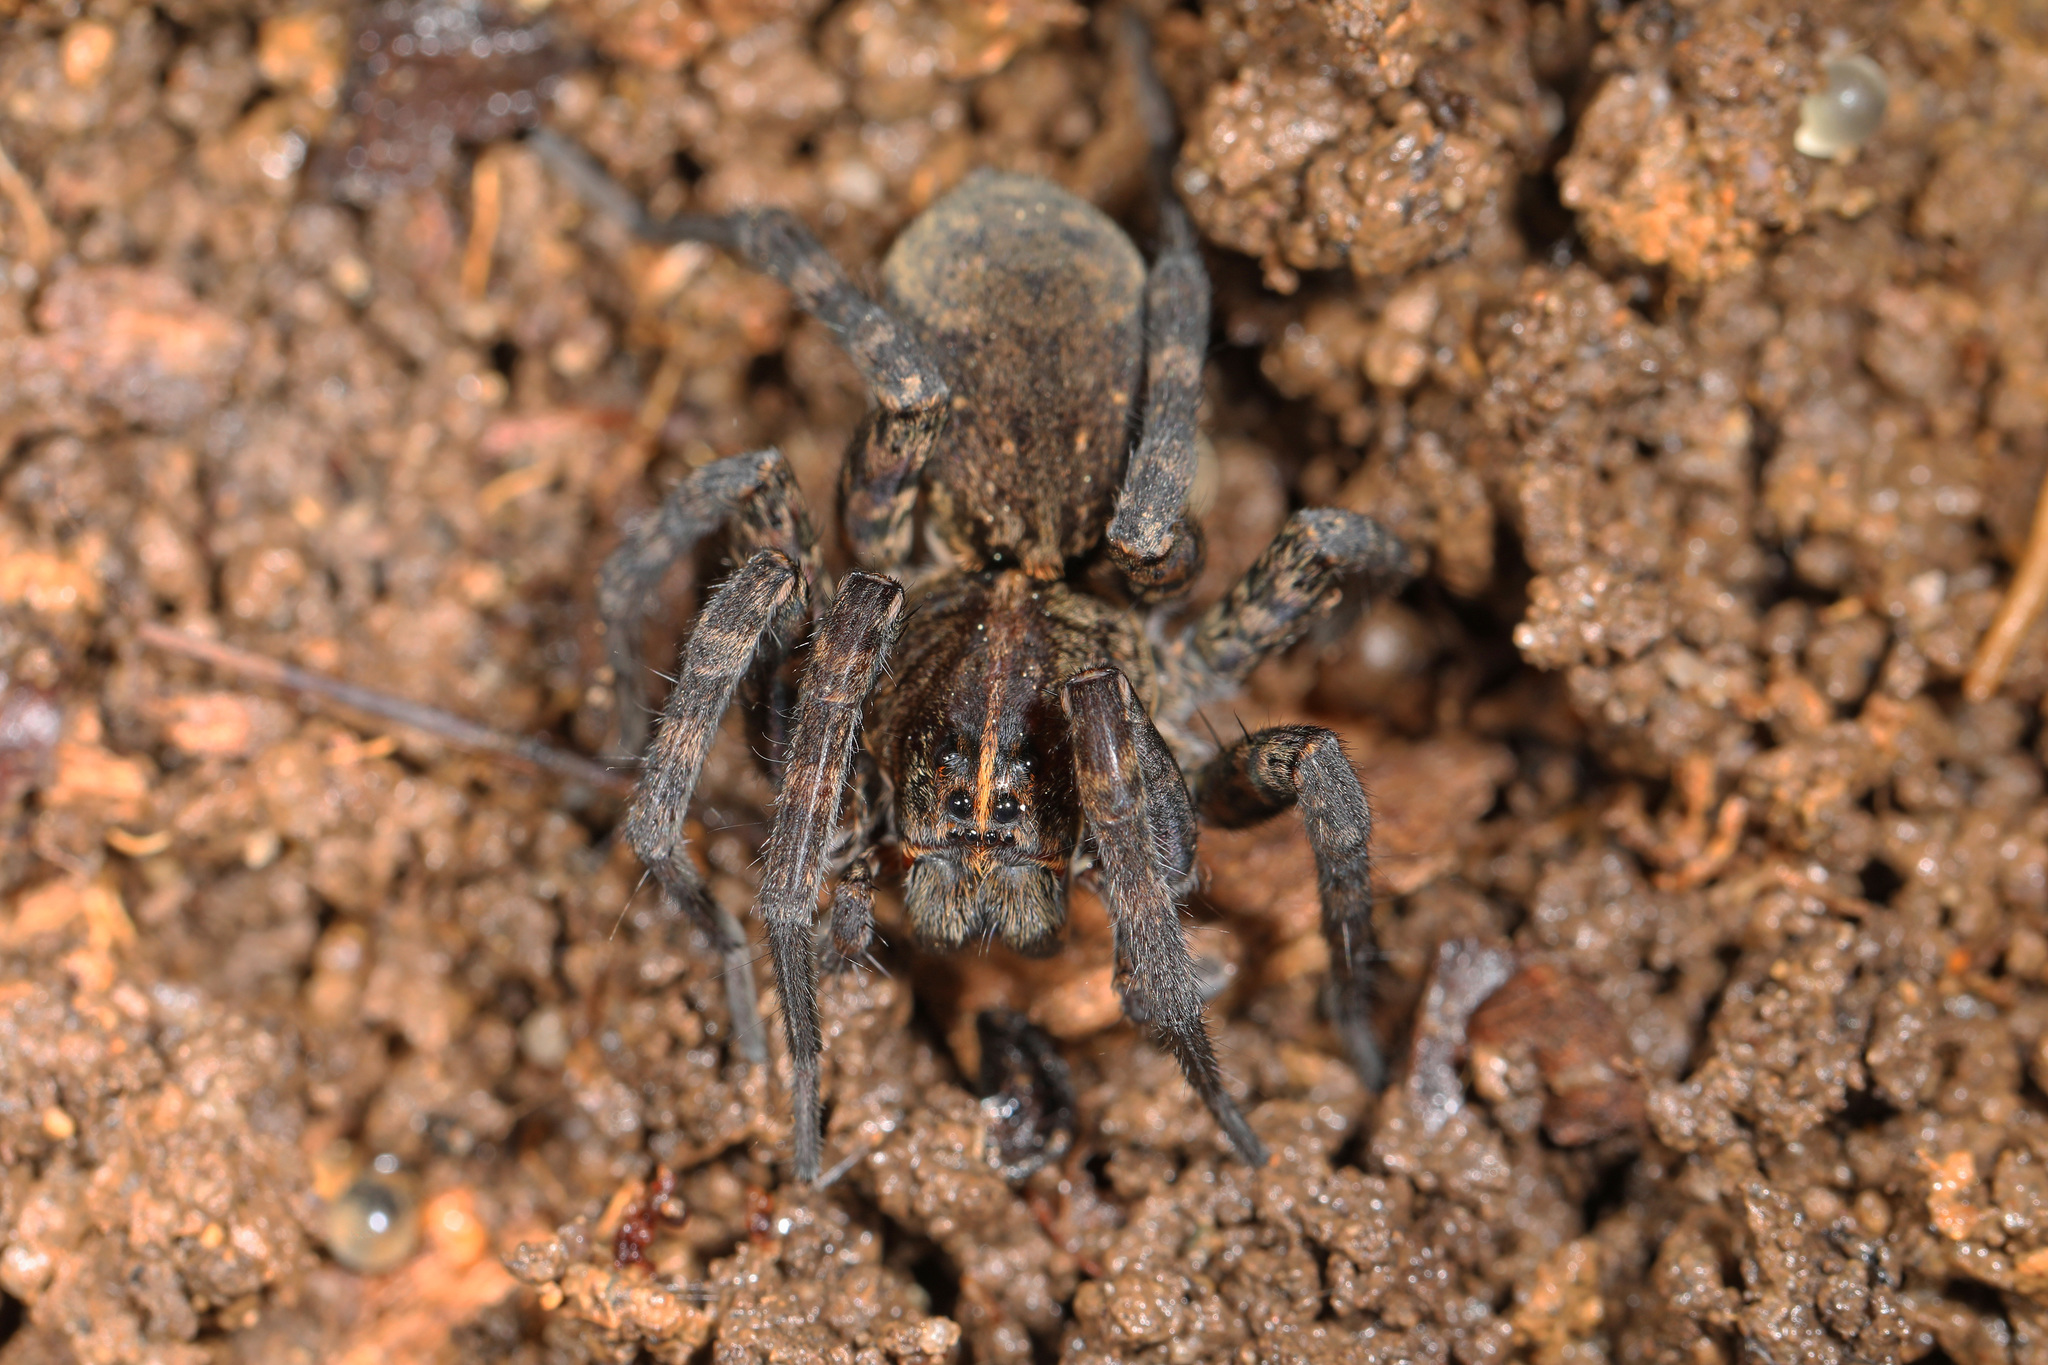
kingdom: Animalia
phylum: Arthropoda
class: Arachnida
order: Araneae
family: Lycosidae
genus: Tigrosa
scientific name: Tigrosa georgicola
